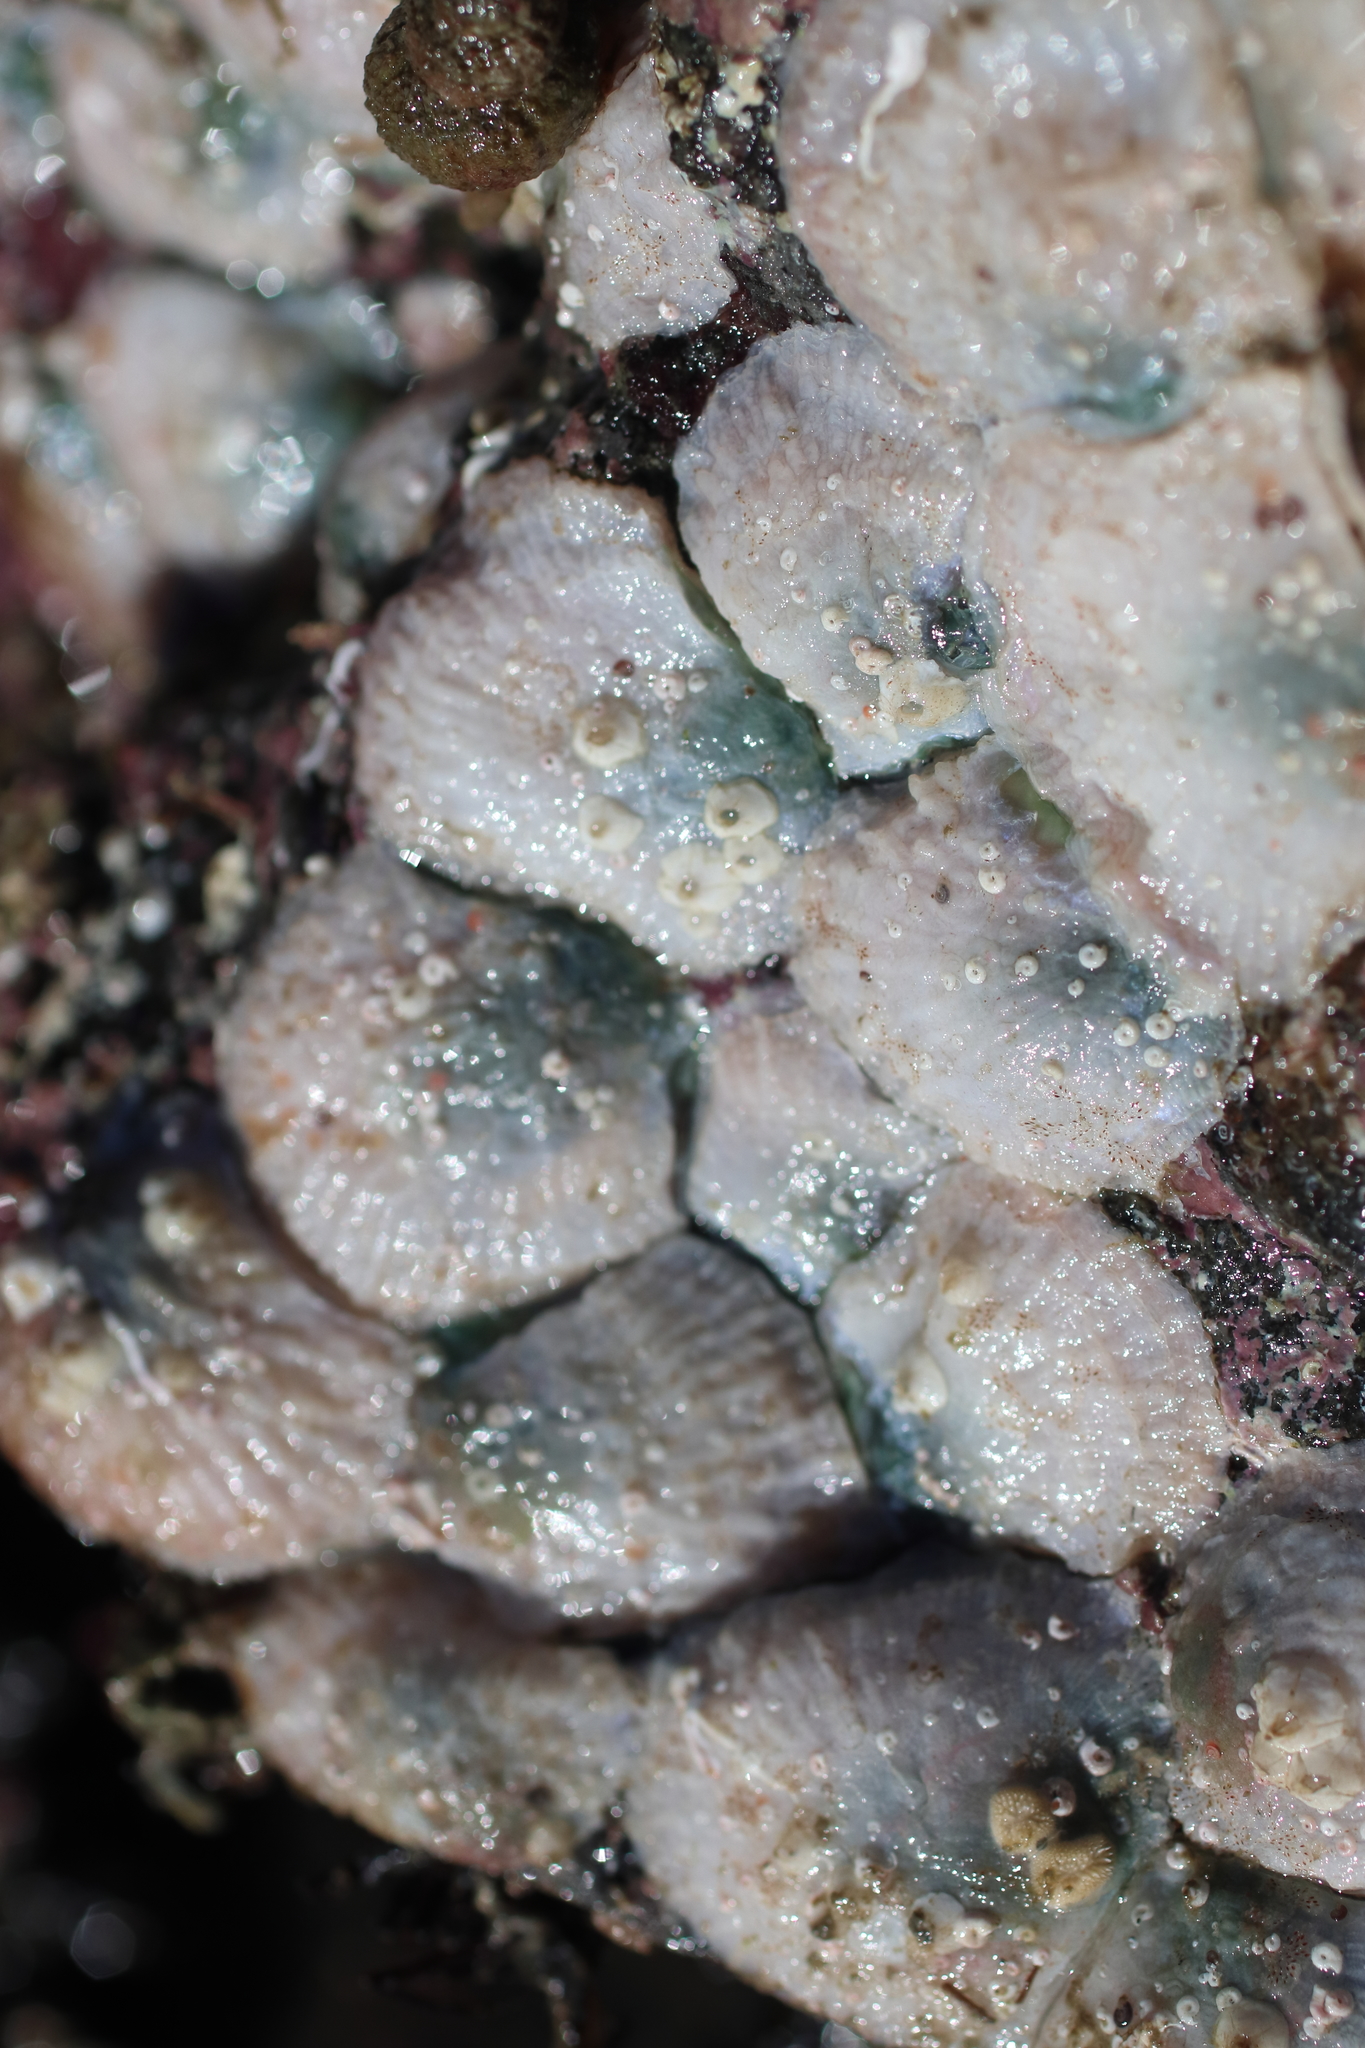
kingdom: Animalia
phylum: Mollusca
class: Bivalvia
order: Pectinida
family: Anomiidae
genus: Pododesmus
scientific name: Pododesmus macrochisma
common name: Alaska jingle
